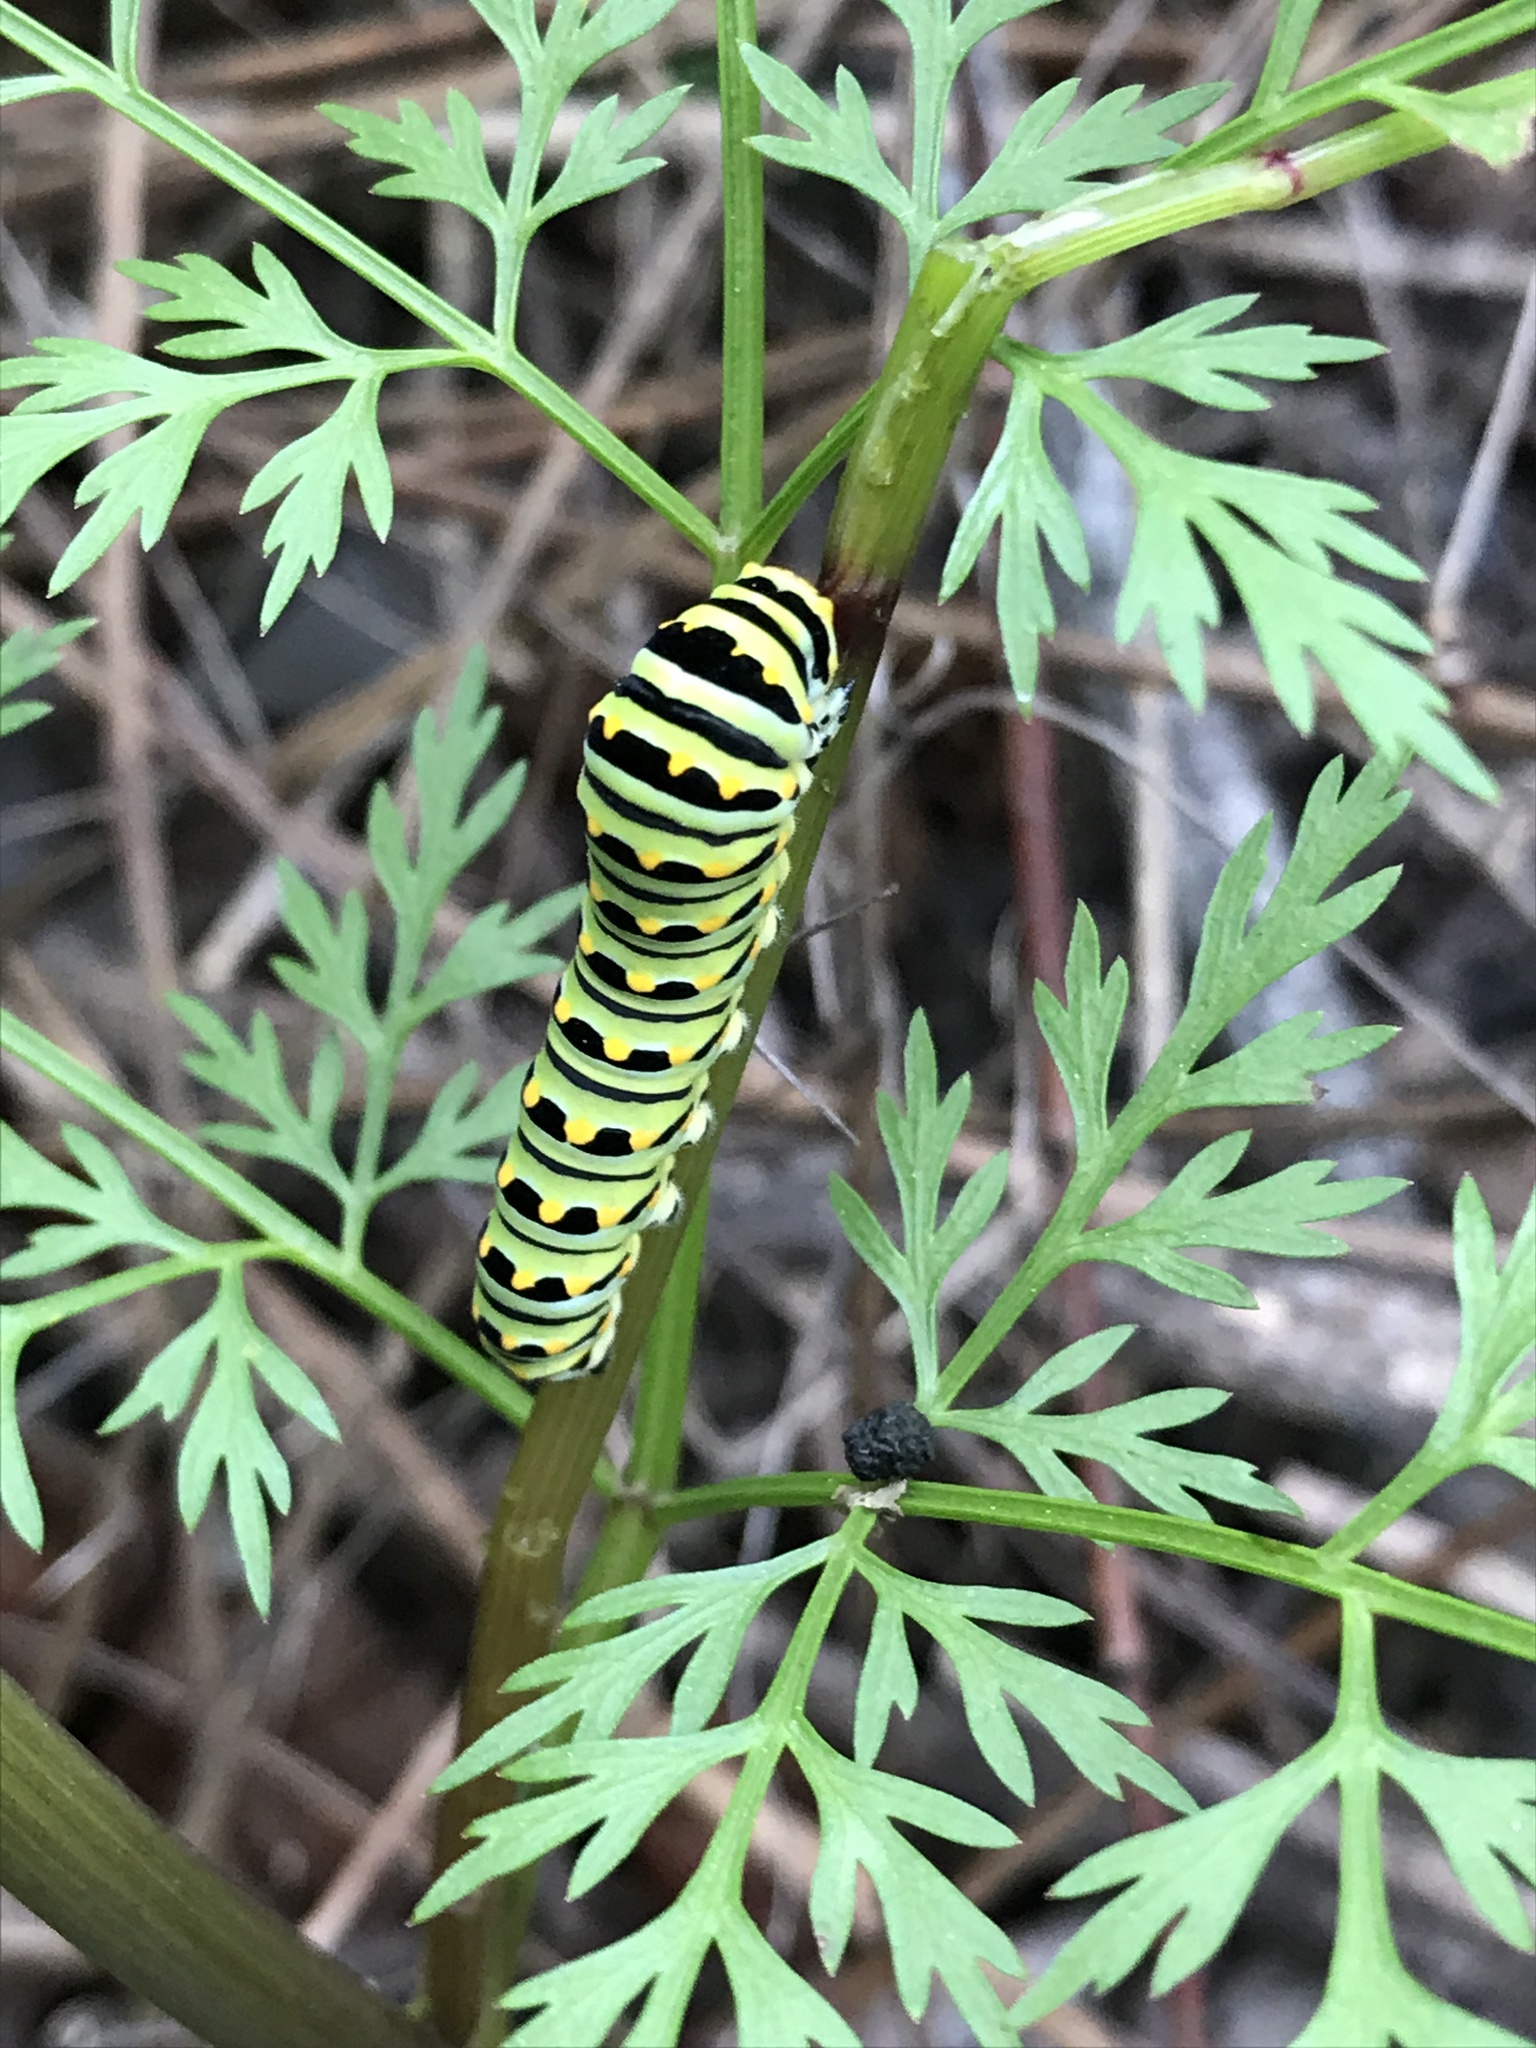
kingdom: Animalia
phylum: Arthropoda
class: Insecta
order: Lepidoptera
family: Papilionidae
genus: Papilio
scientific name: Papilio polyxenes
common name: Black swallowtail
